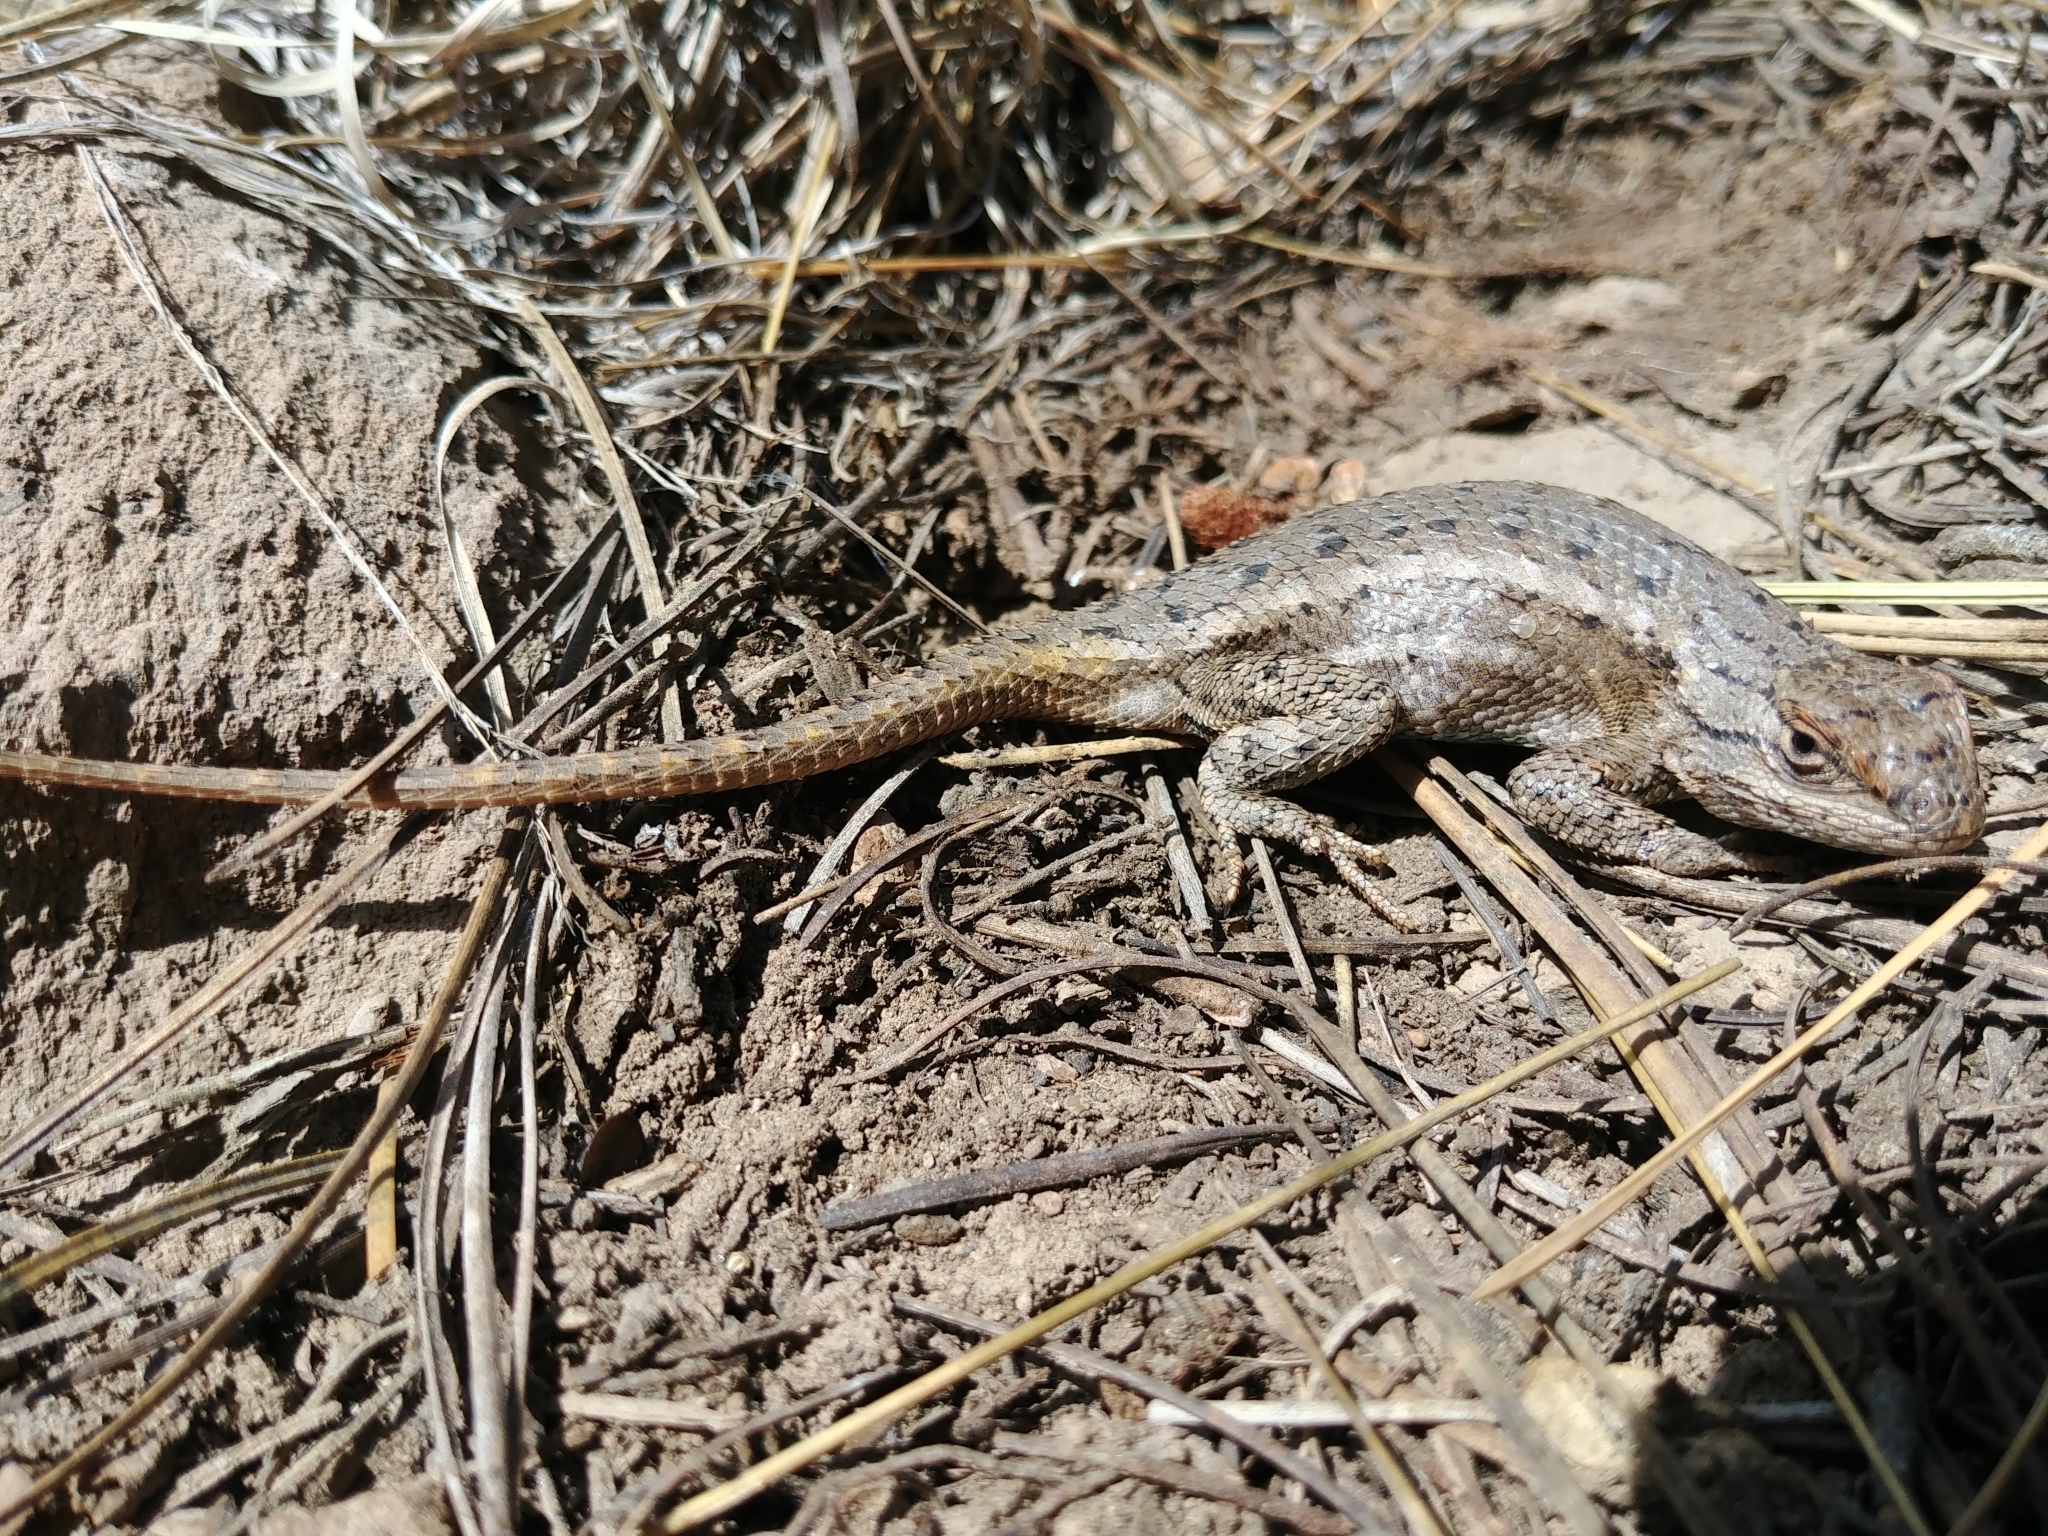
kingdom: Animalia
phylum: Chordata
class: Squamata
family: Phrynosomatidae
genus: Sceloporus
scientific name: Sceloporus tristichus
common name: Plateau fence lizard
